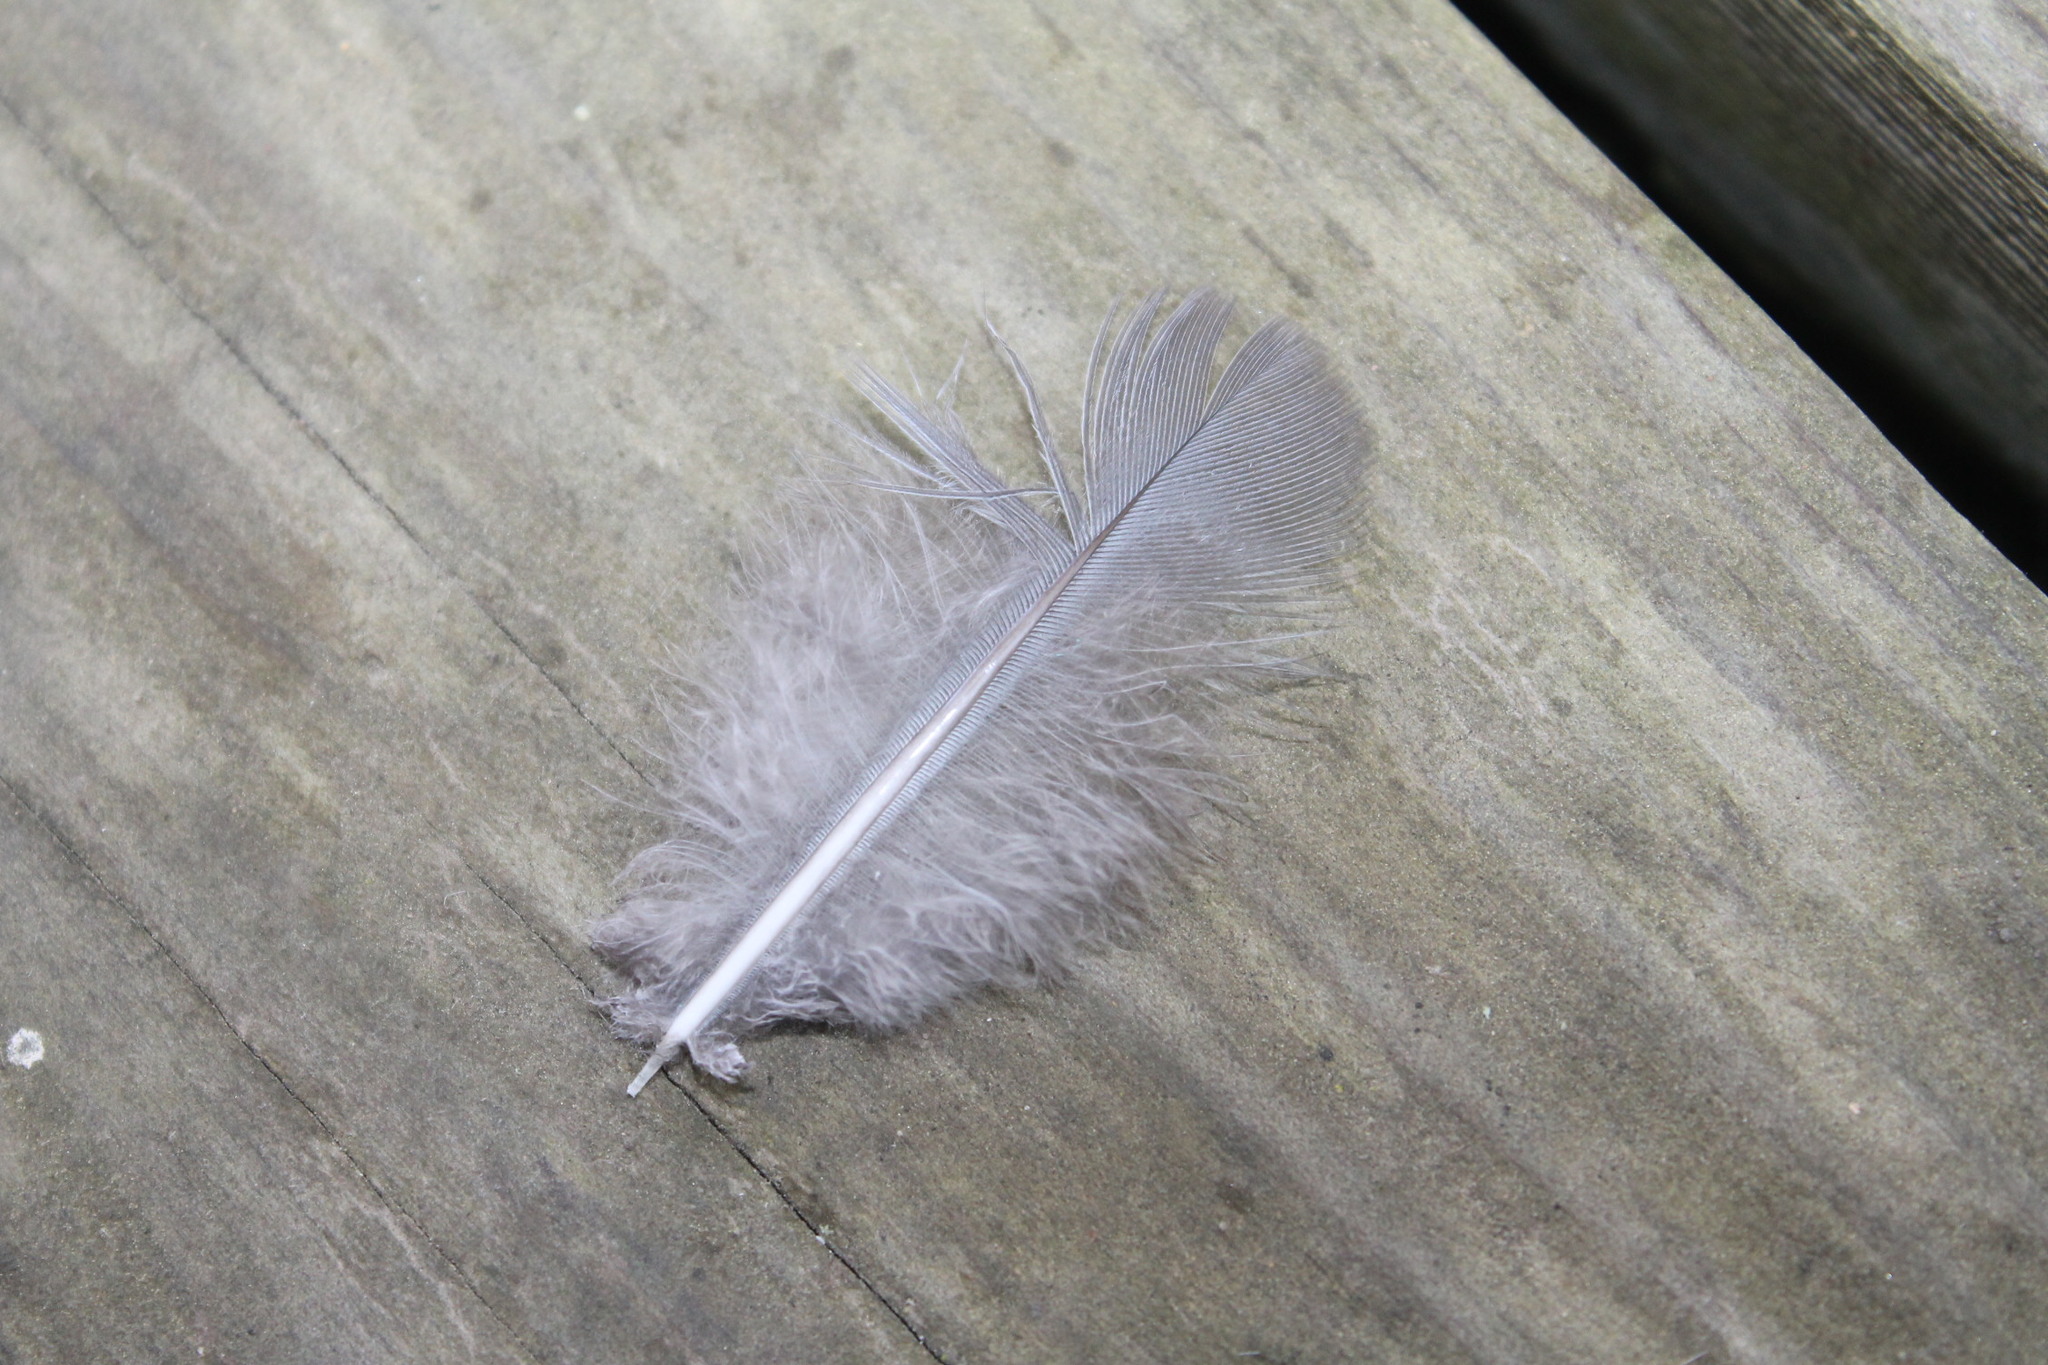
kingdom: Animalia
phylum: Chordata
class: Aves
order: Columbiformes
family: Columbidae
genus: Zenaida
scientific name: Zenaida macroura
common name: Mourning dove
